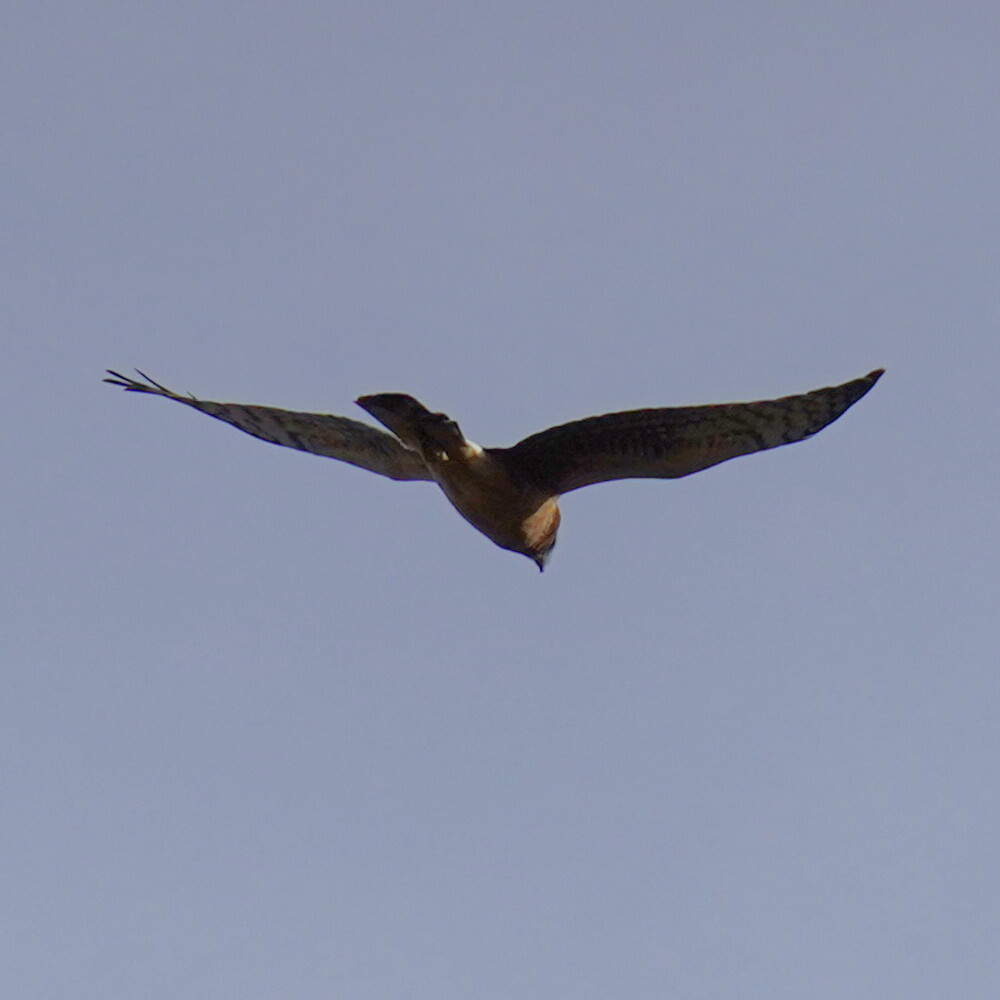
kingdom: Animalia
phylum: Chordata
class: Aves
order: Accipitriformes
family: Accipitridae
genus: Circus
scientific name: Circus cyaneus
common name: Hen harrier
